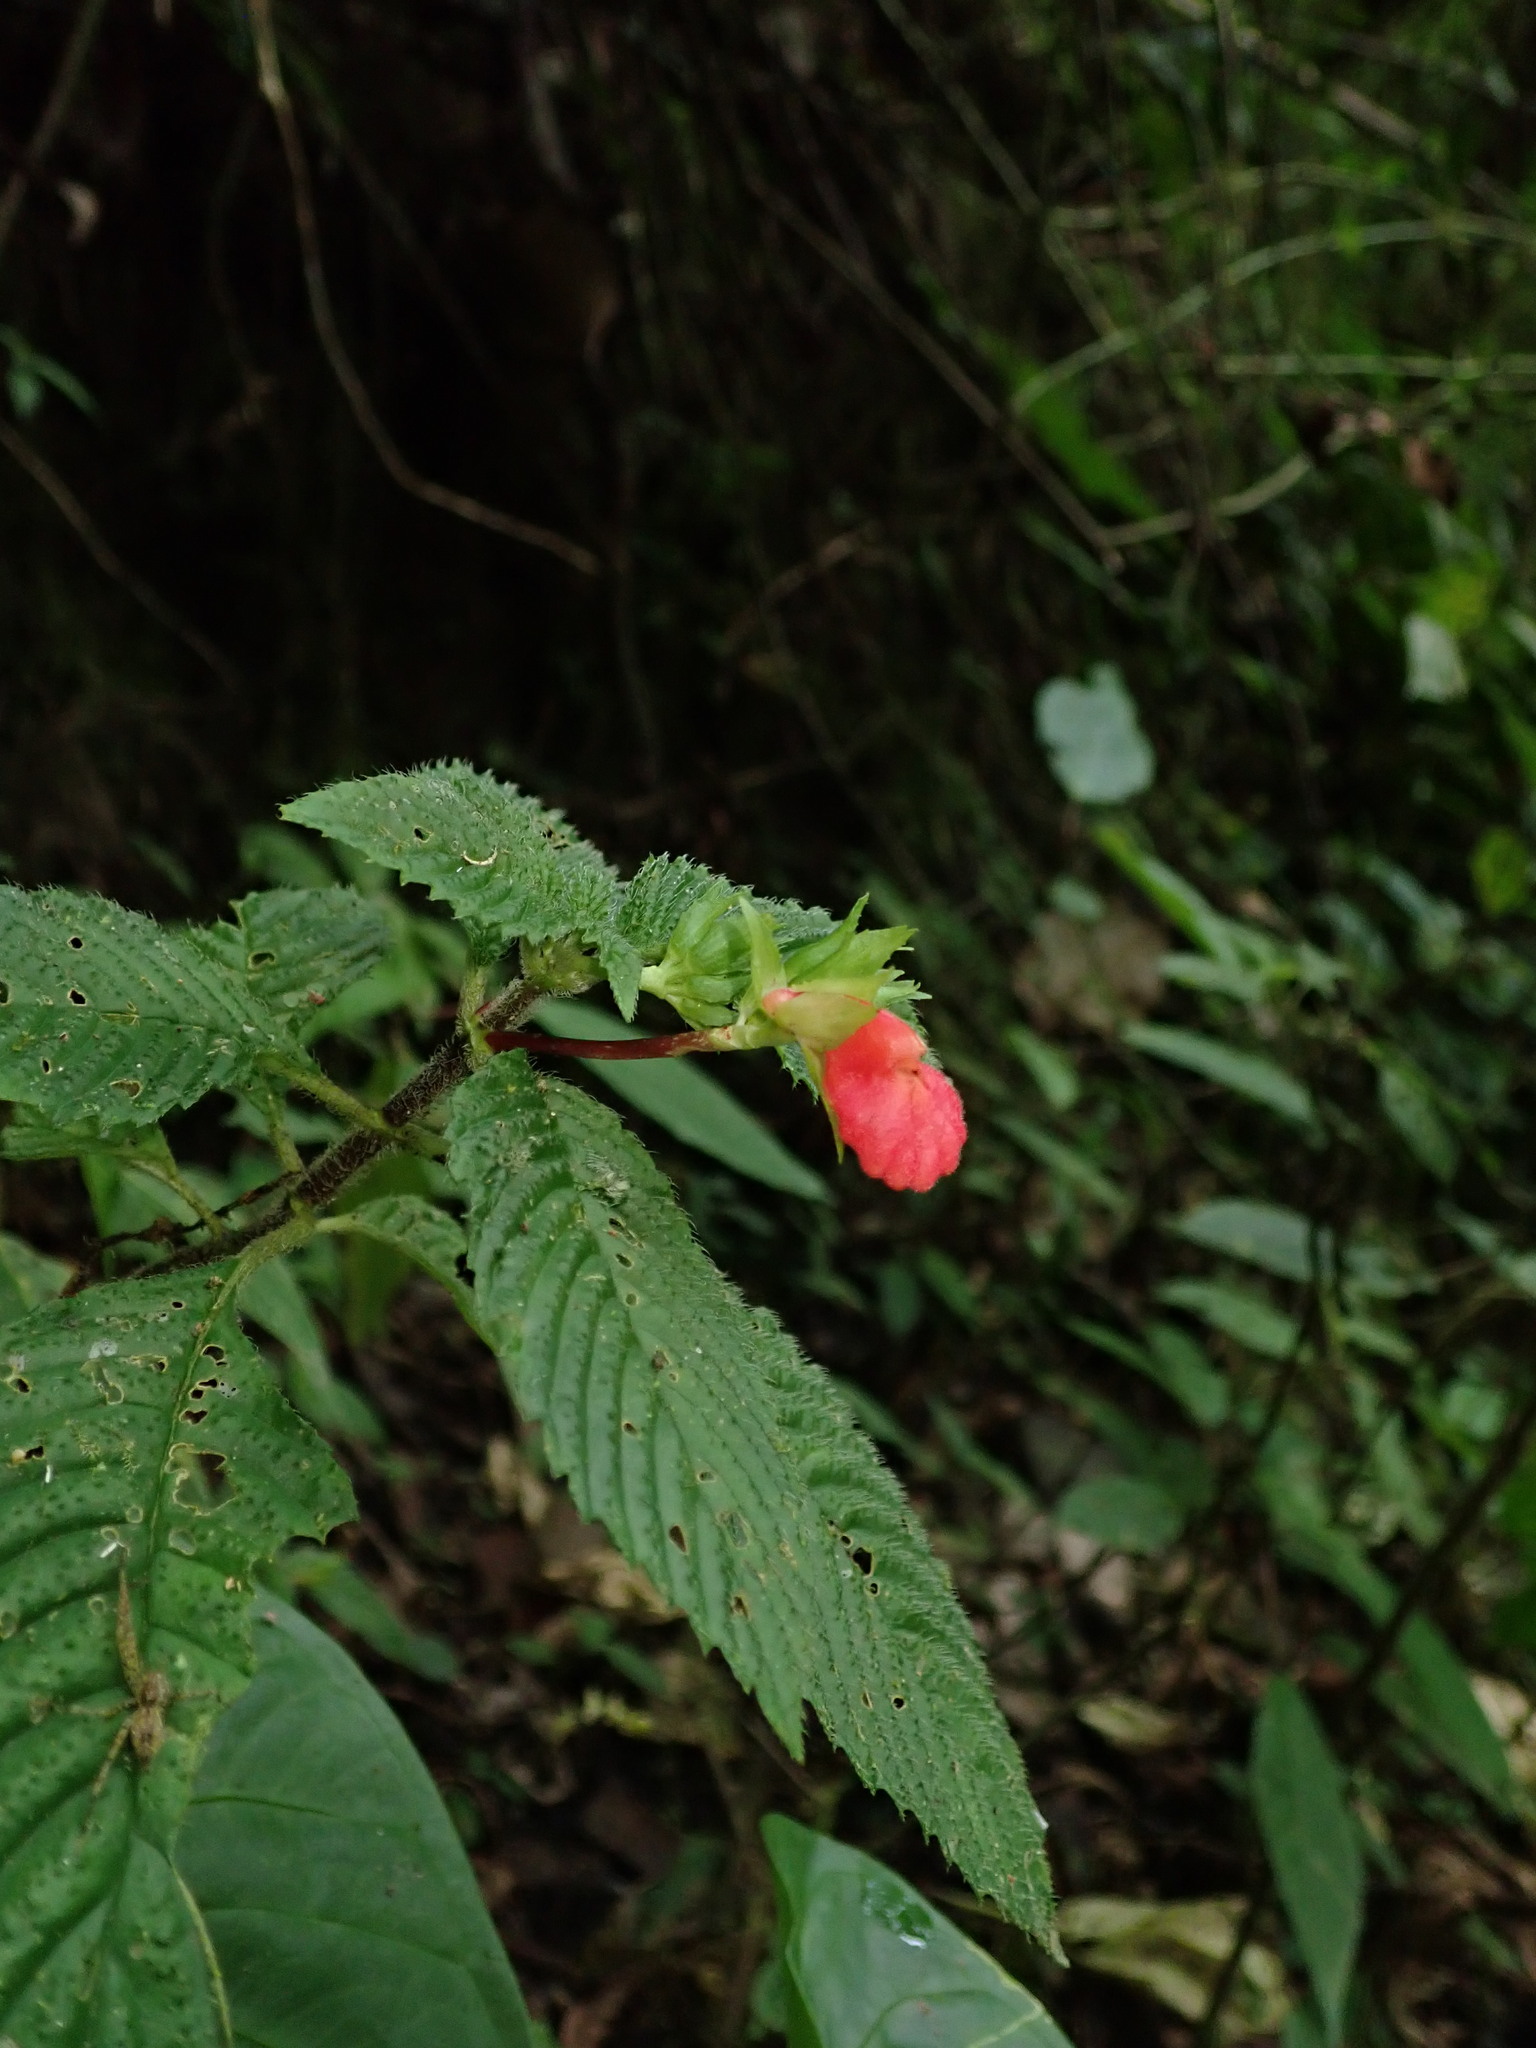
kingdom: Plantae
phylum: Tracheophyta
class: Magnoliopsida
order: Lamiales
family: Gesneriaceae
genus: Gasteranthus
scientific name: Gasteranthus quitensis
